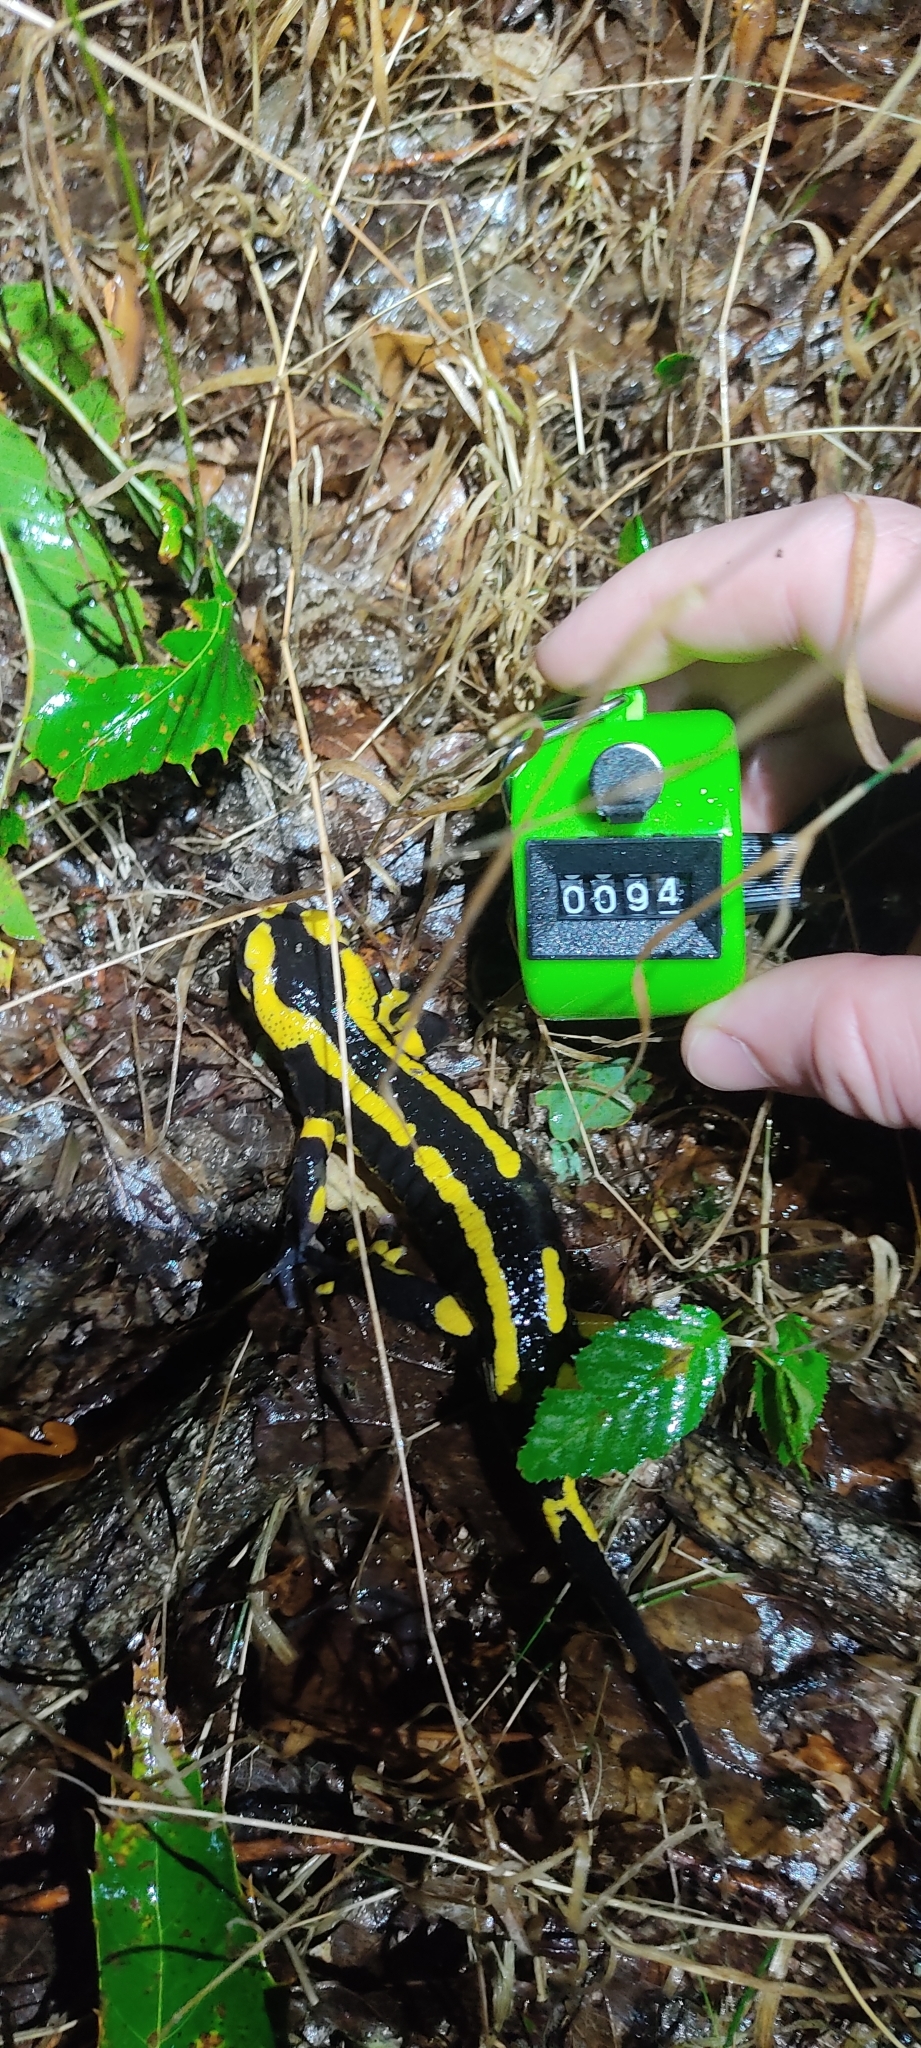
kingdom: Animalia
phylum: Chordata
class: Amphibia
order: Caudata
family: Salamandridae
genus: Salamandra
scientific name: Salamandra salamandra
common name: Fire salamander
